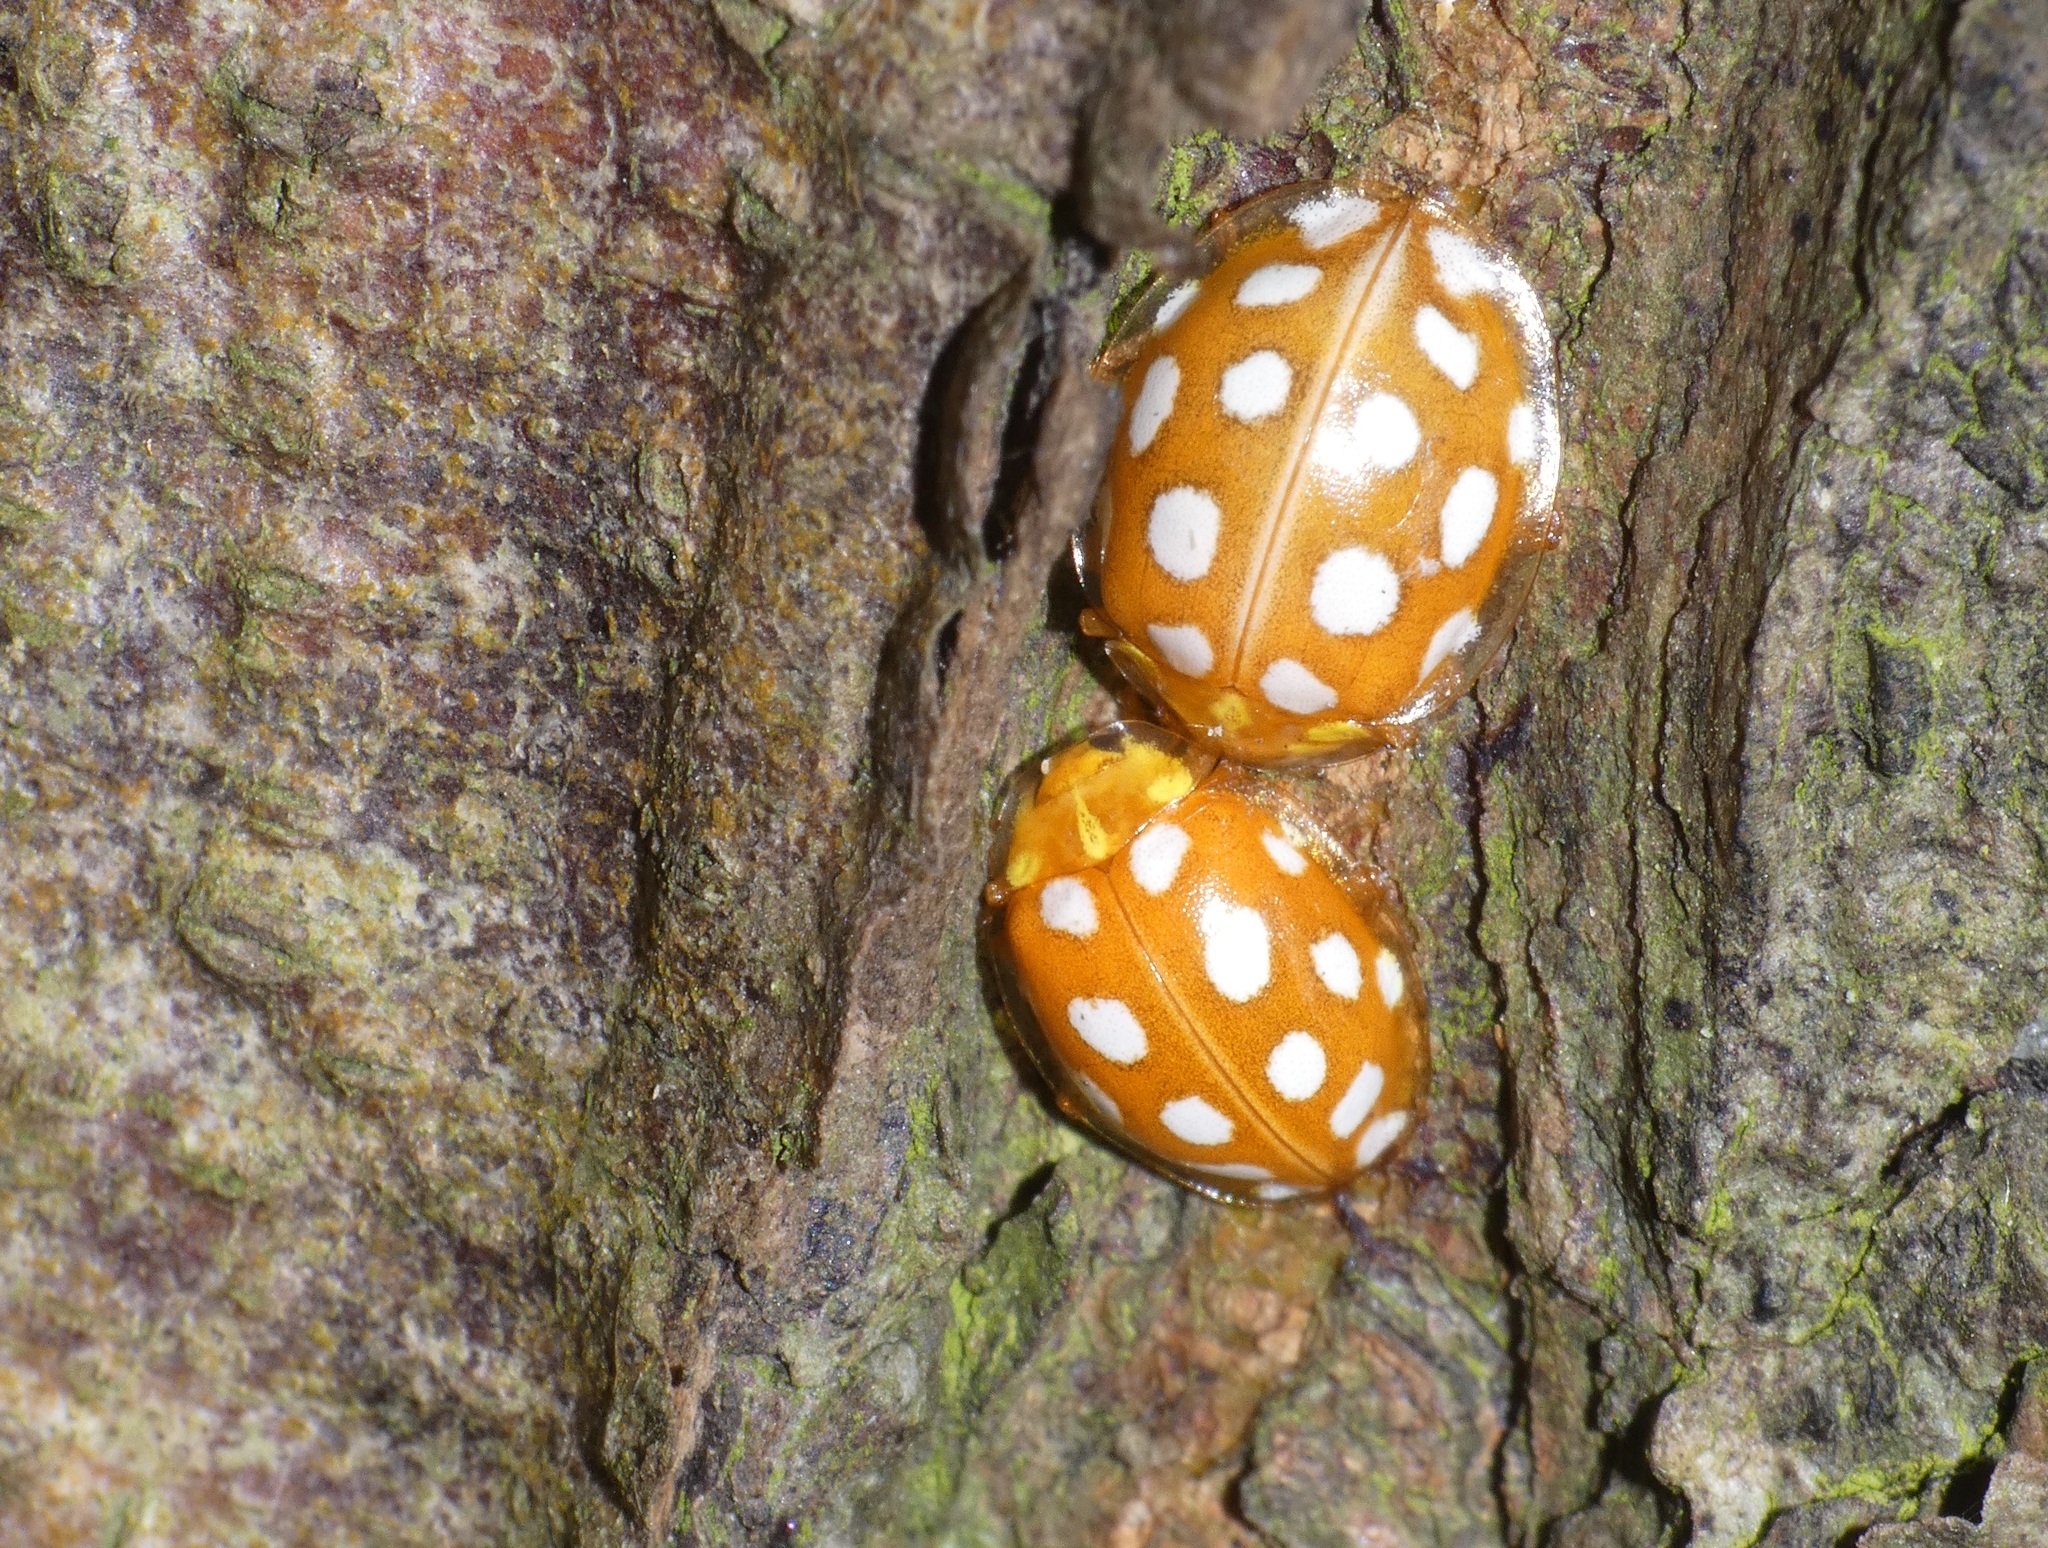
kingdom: Animalia
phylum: Arthropoda
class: Insecta
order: Coleoptera
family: Coccinellidae
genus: Halyzia
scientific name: Halyzia sedecimguttata
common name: Orange ladybird
